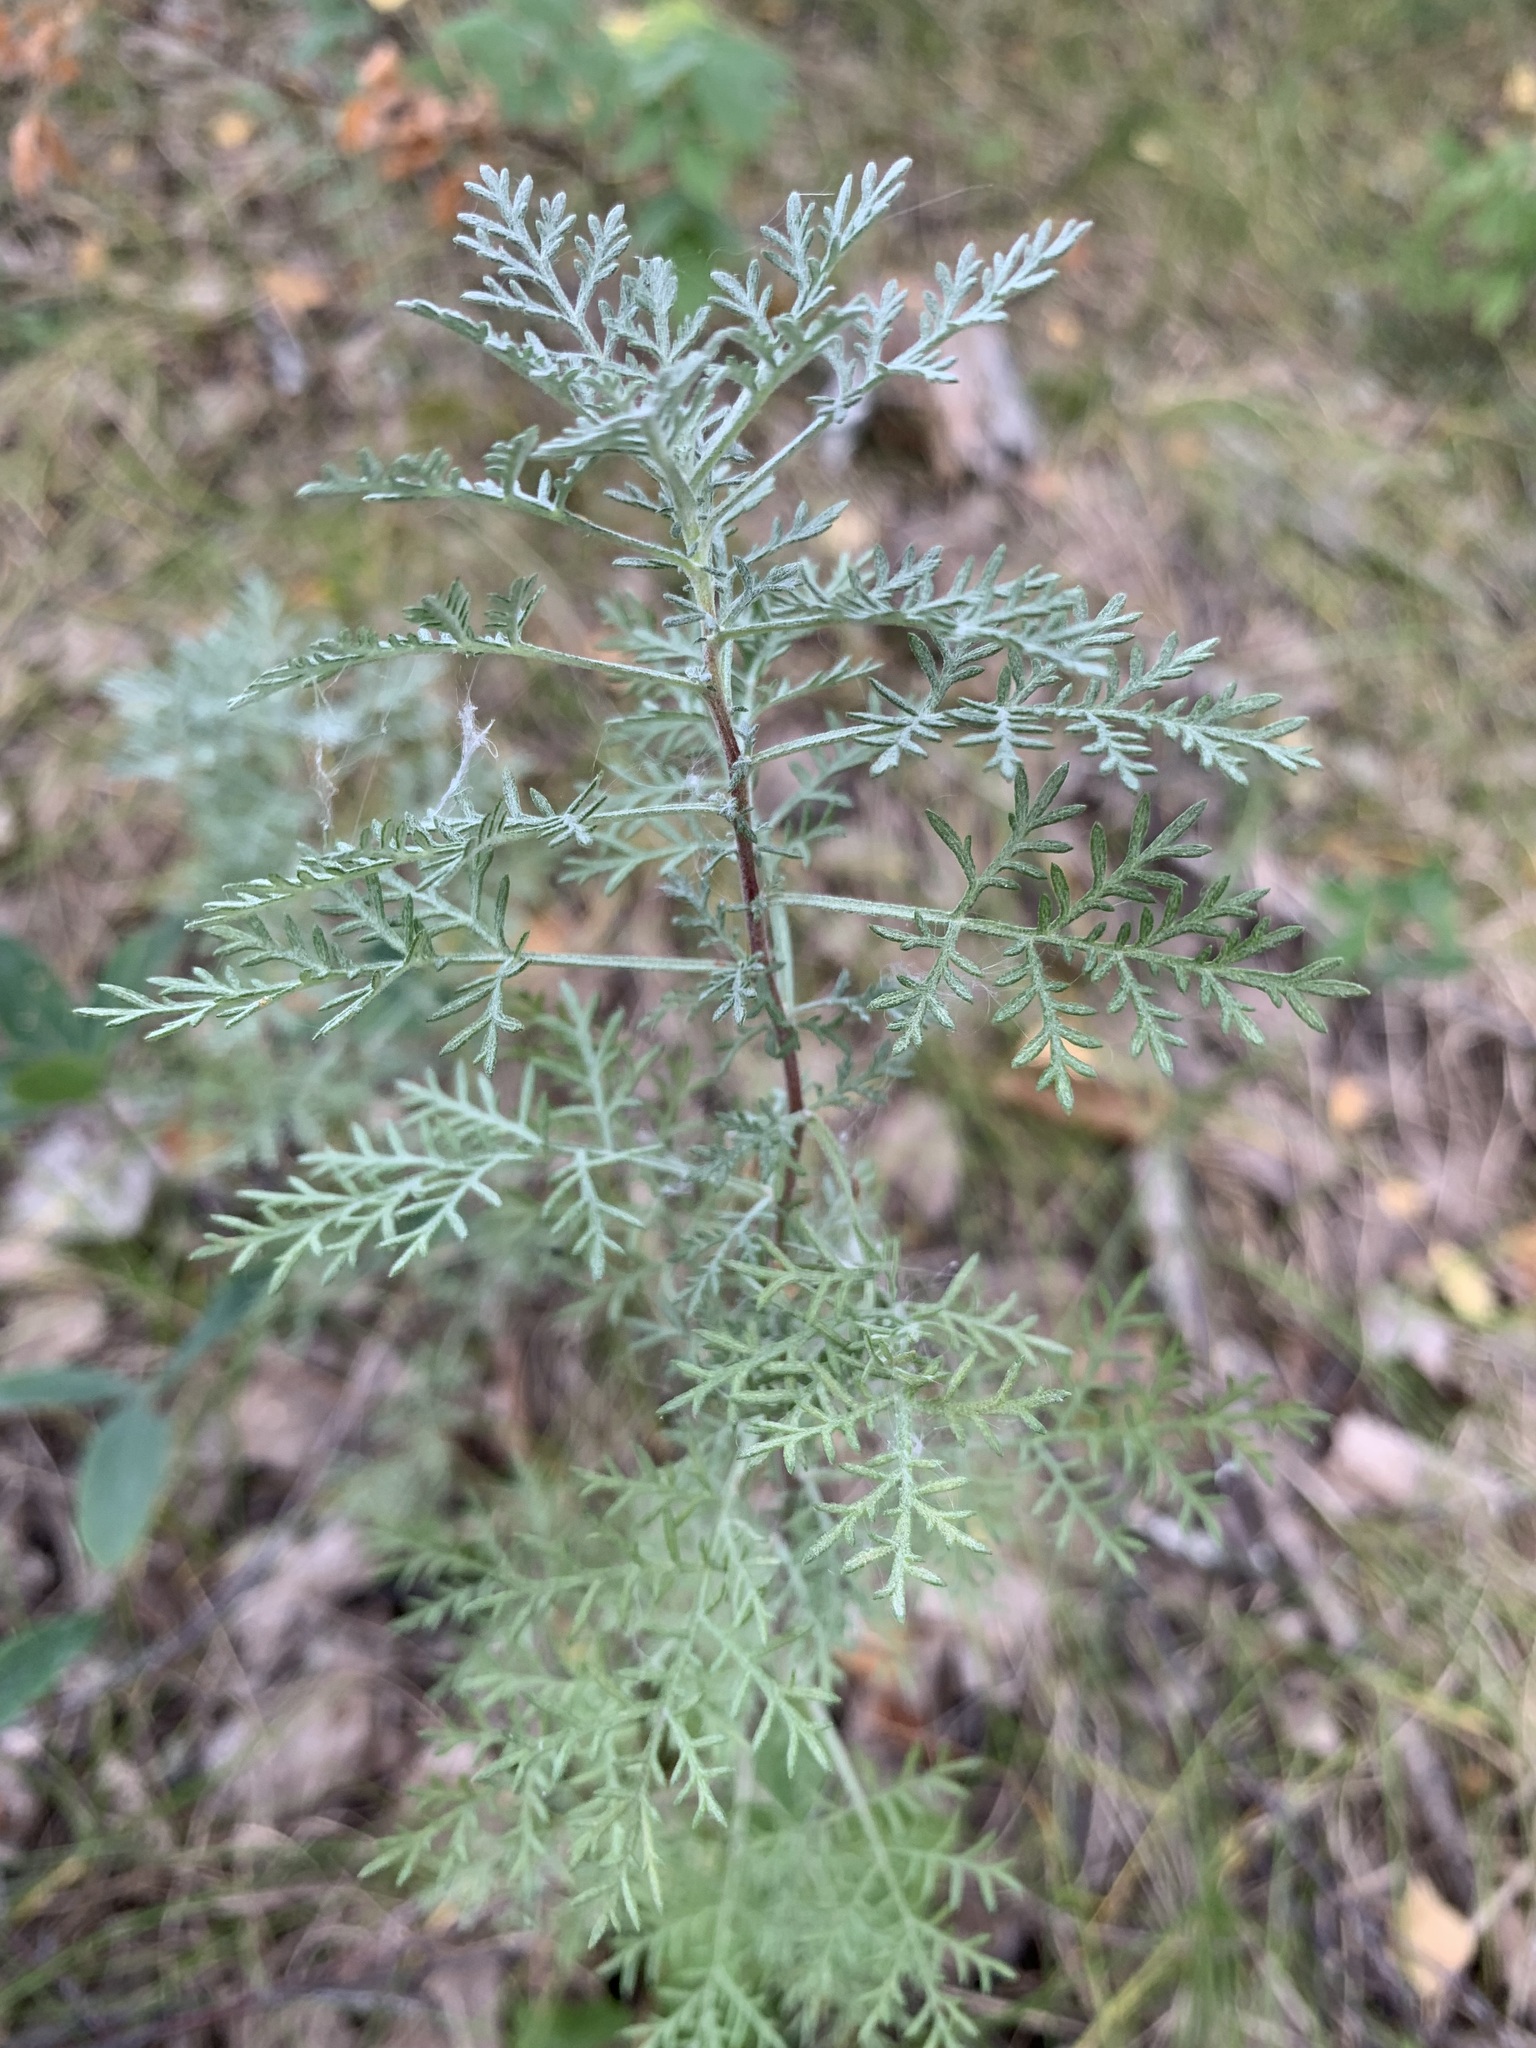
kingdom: Plantae
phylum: Tracheophyta
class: Magnoliopsida
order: Asterales
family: Asteraceae
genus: Artemisia
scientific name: Artemisia pontica
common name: Roman wormwood
